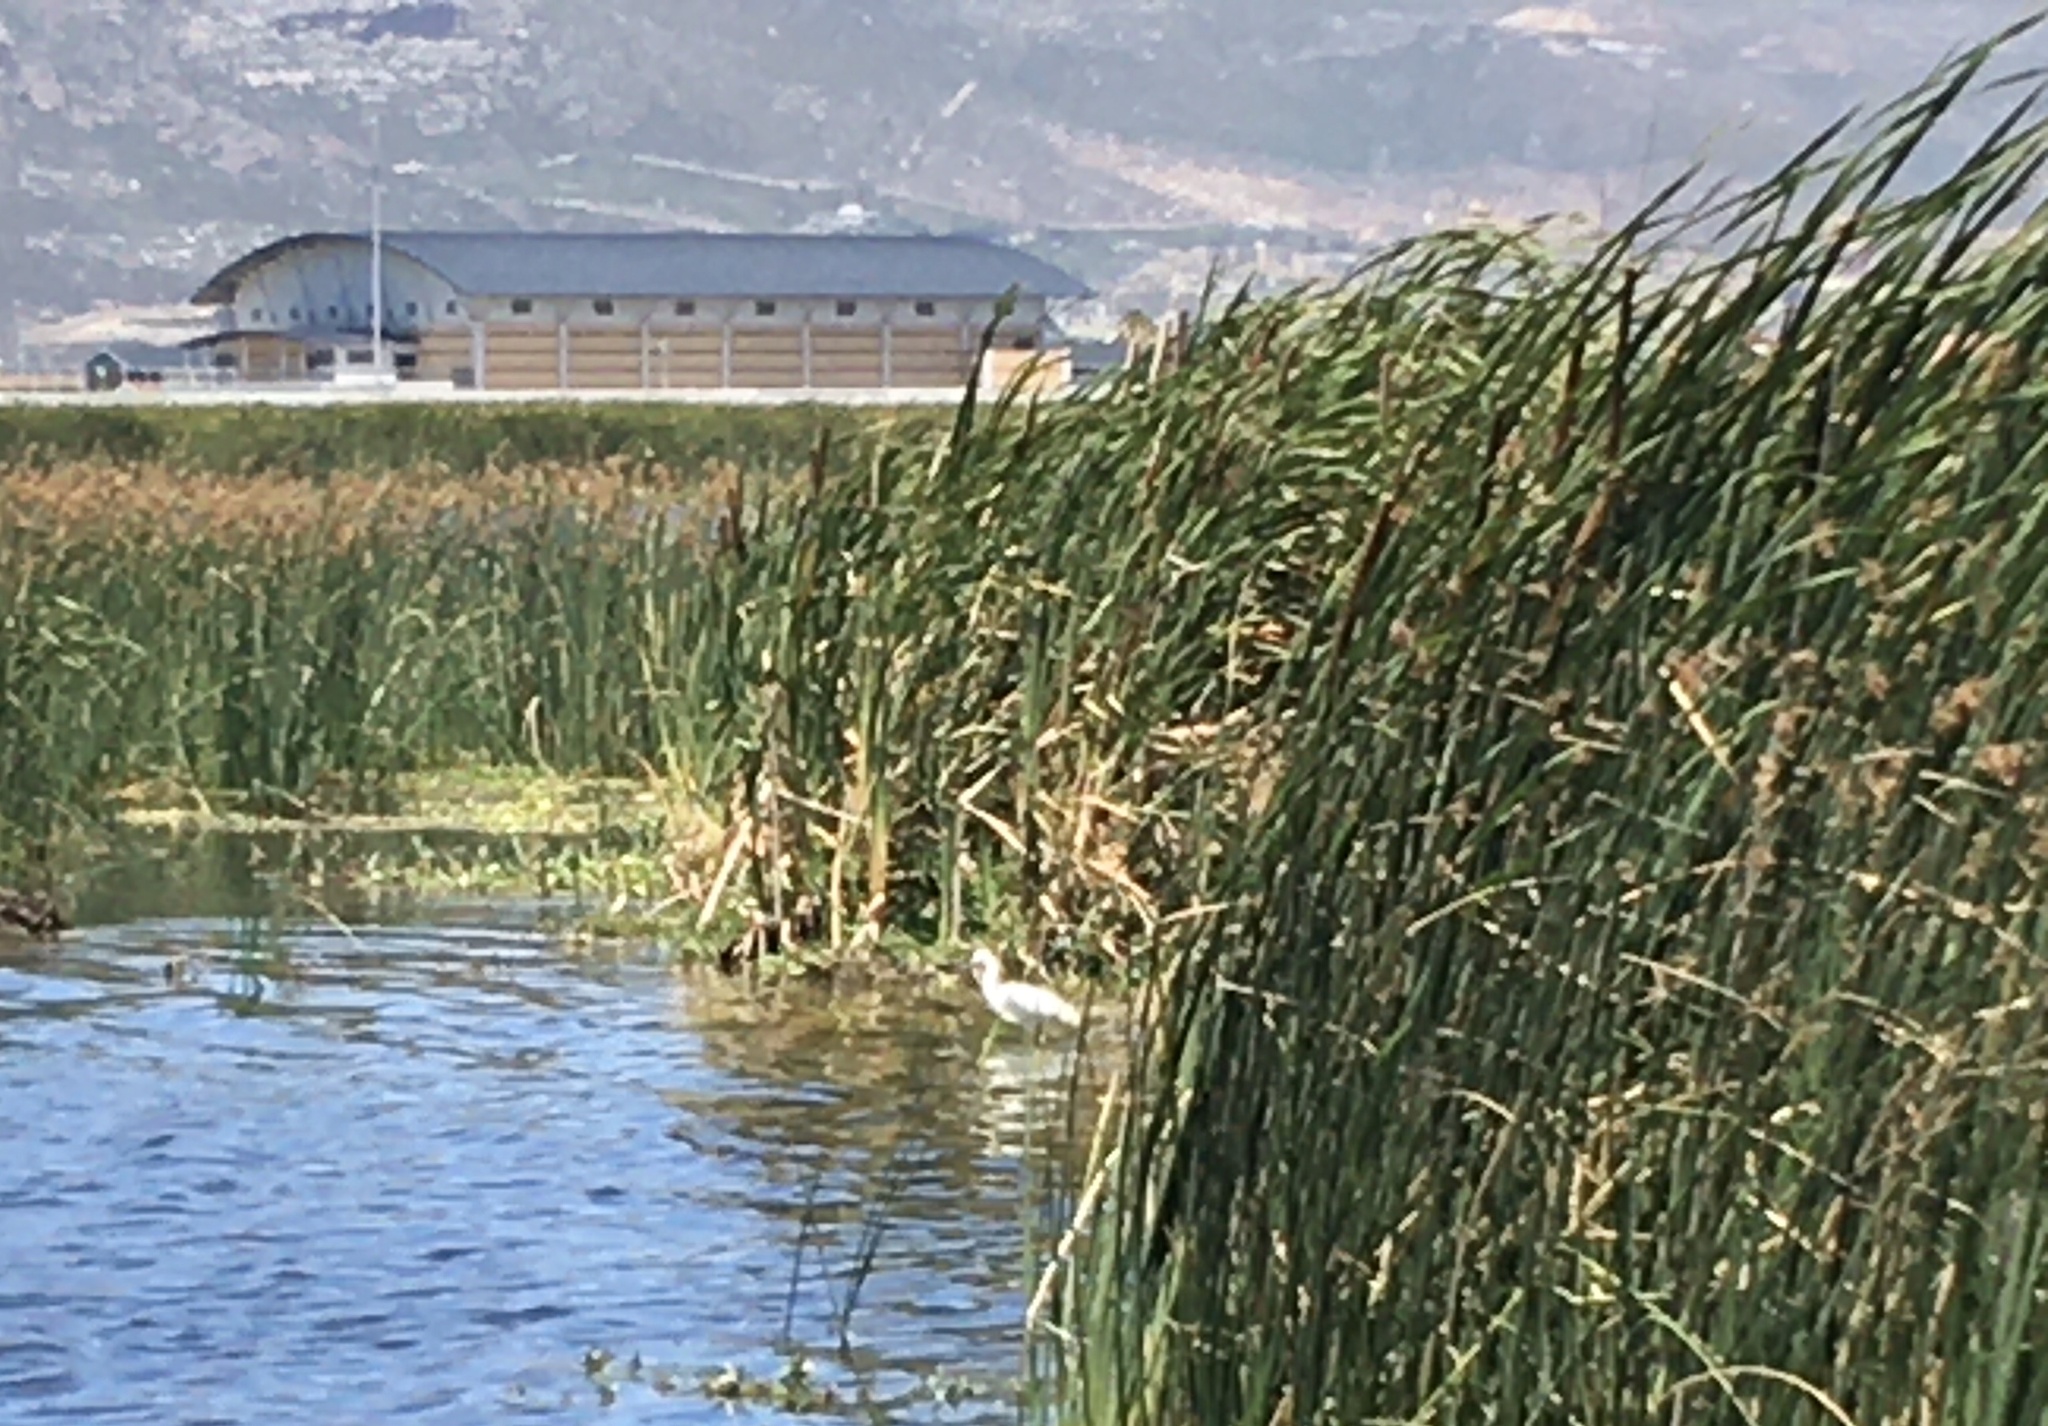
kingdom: Animalia
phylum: Chordata
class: Aves
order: Pelecaniformes
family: Ardeidae
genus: Egretta
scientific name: Egretta garzetta
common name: Little egret
